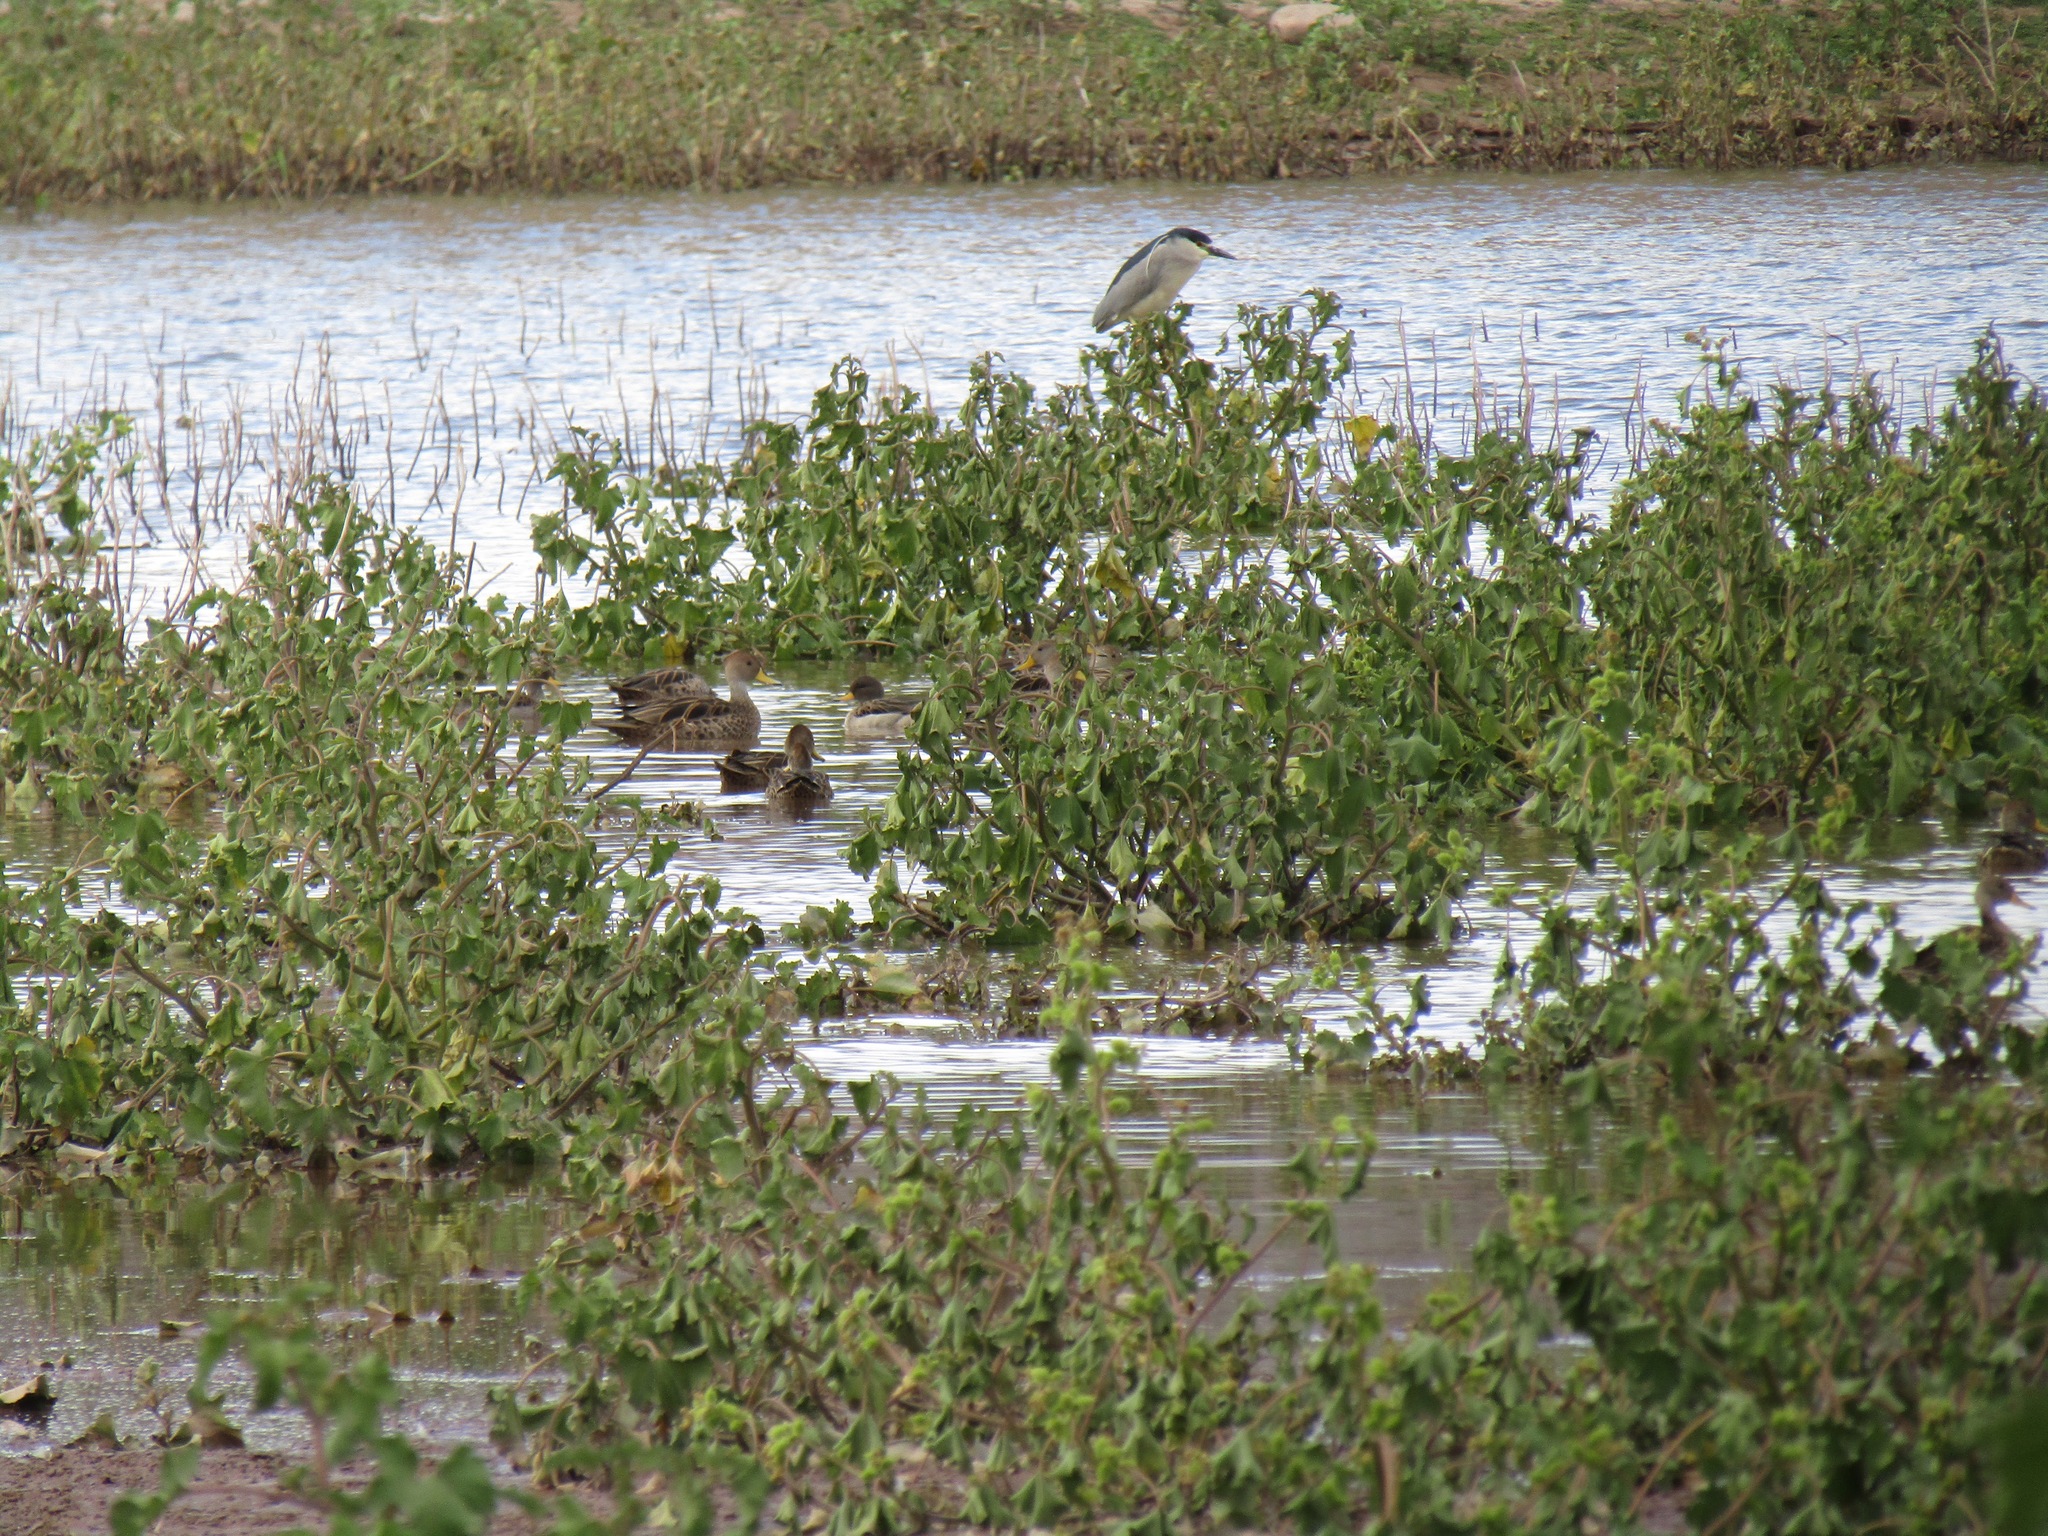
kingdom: Animalia
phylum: Chordata
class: Aves
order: Anseriformes
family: Anatidae
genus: Anas
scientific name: Anas georgica
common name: Yellow-billed pintail
